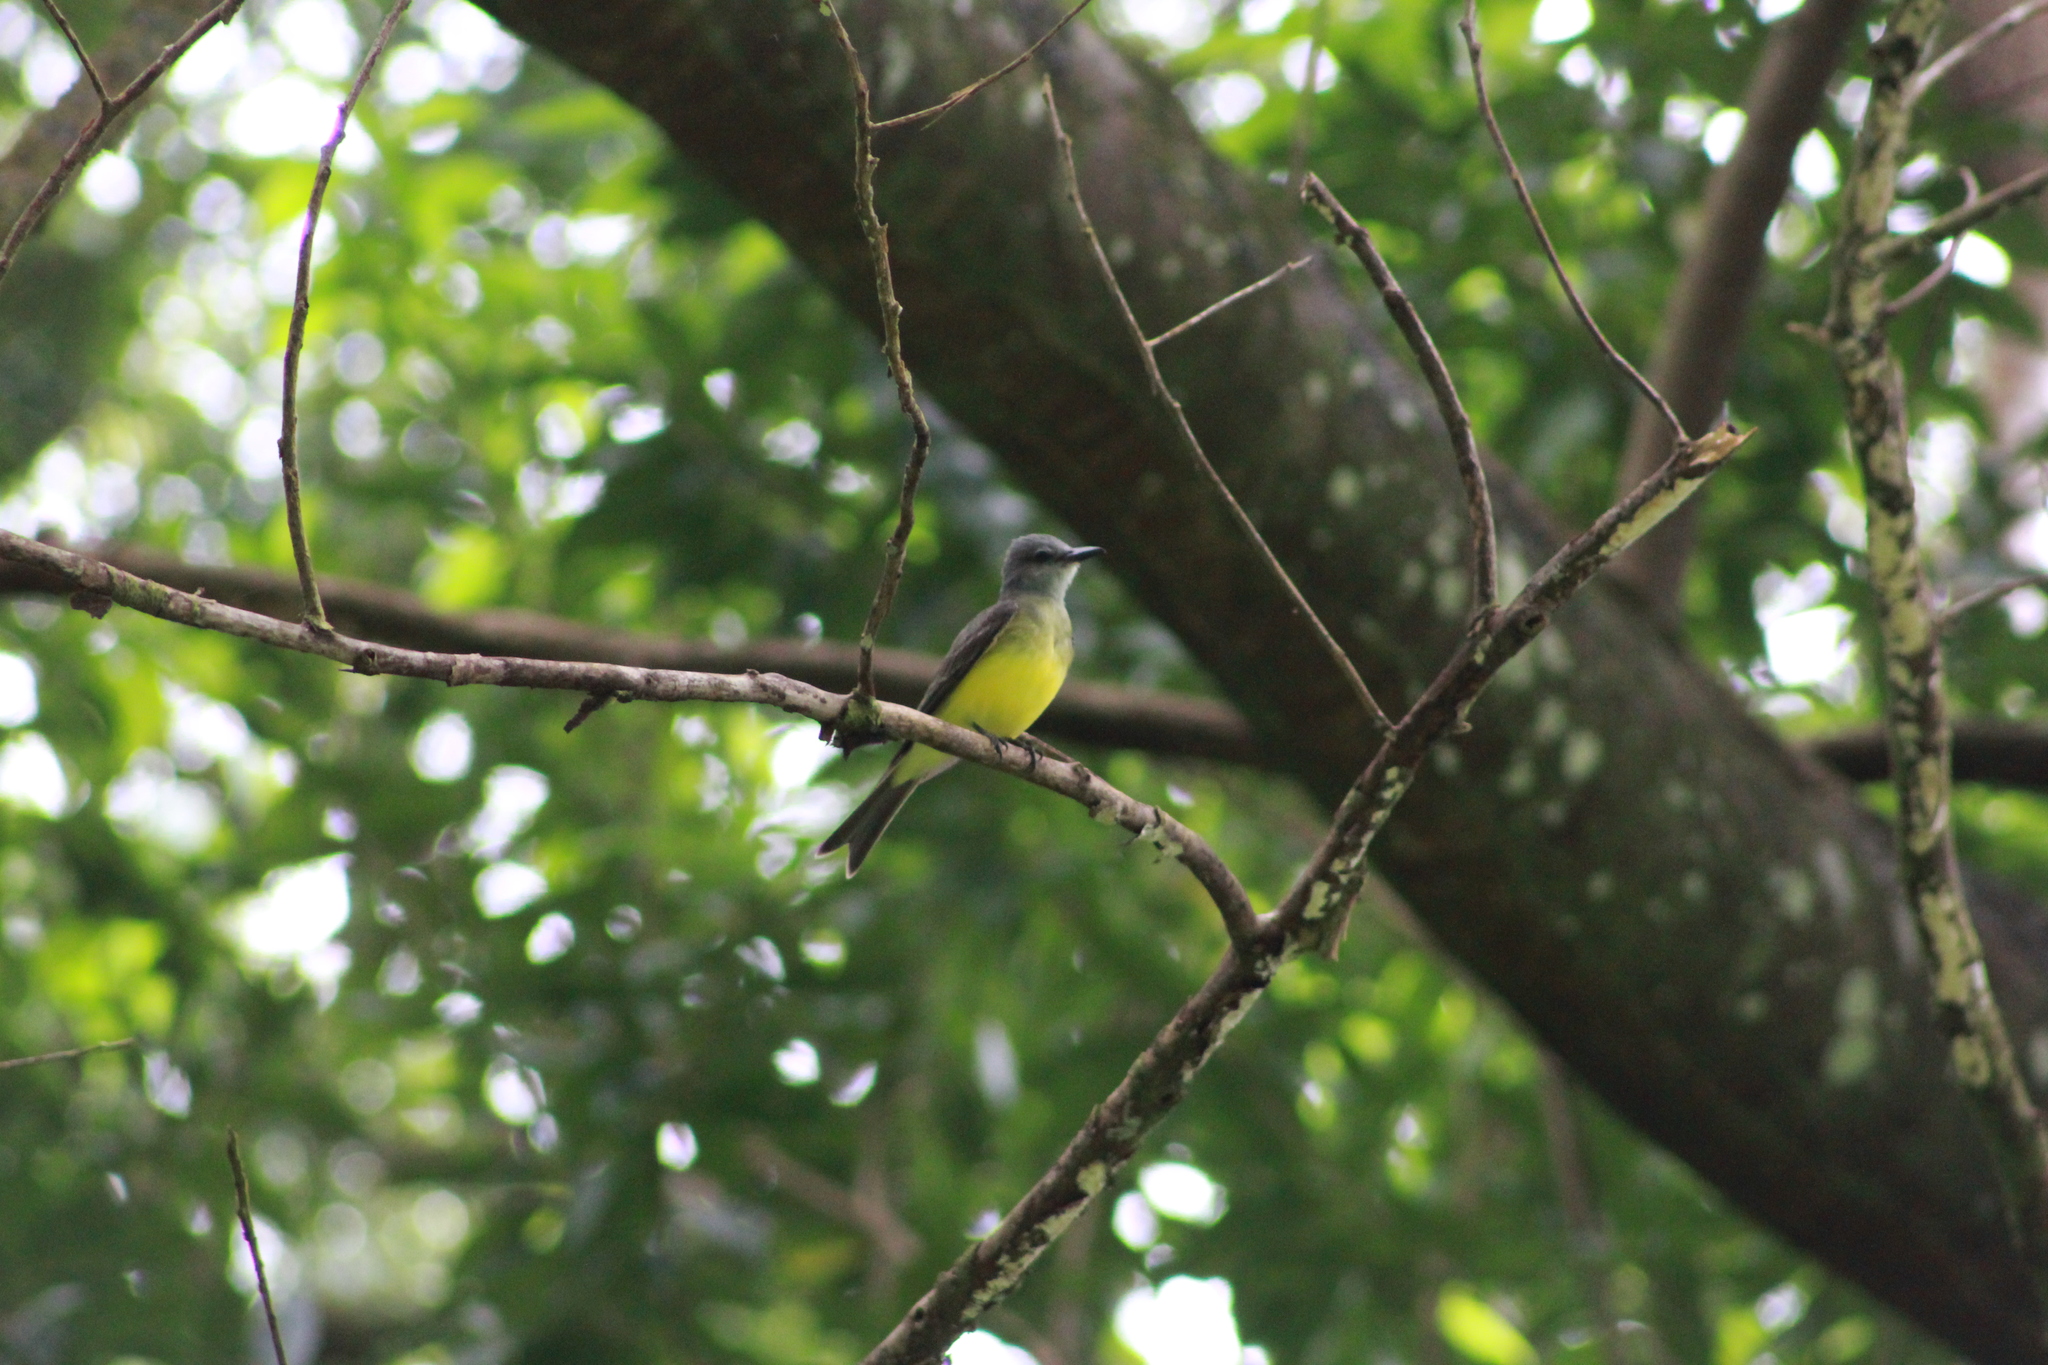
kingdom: Animalia
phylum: Chordata
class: Aves
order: Passeriformes
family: Tyrannidae
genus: Tyrannus
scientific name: Tyrannus melancholicus
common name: Tropical kingbird
